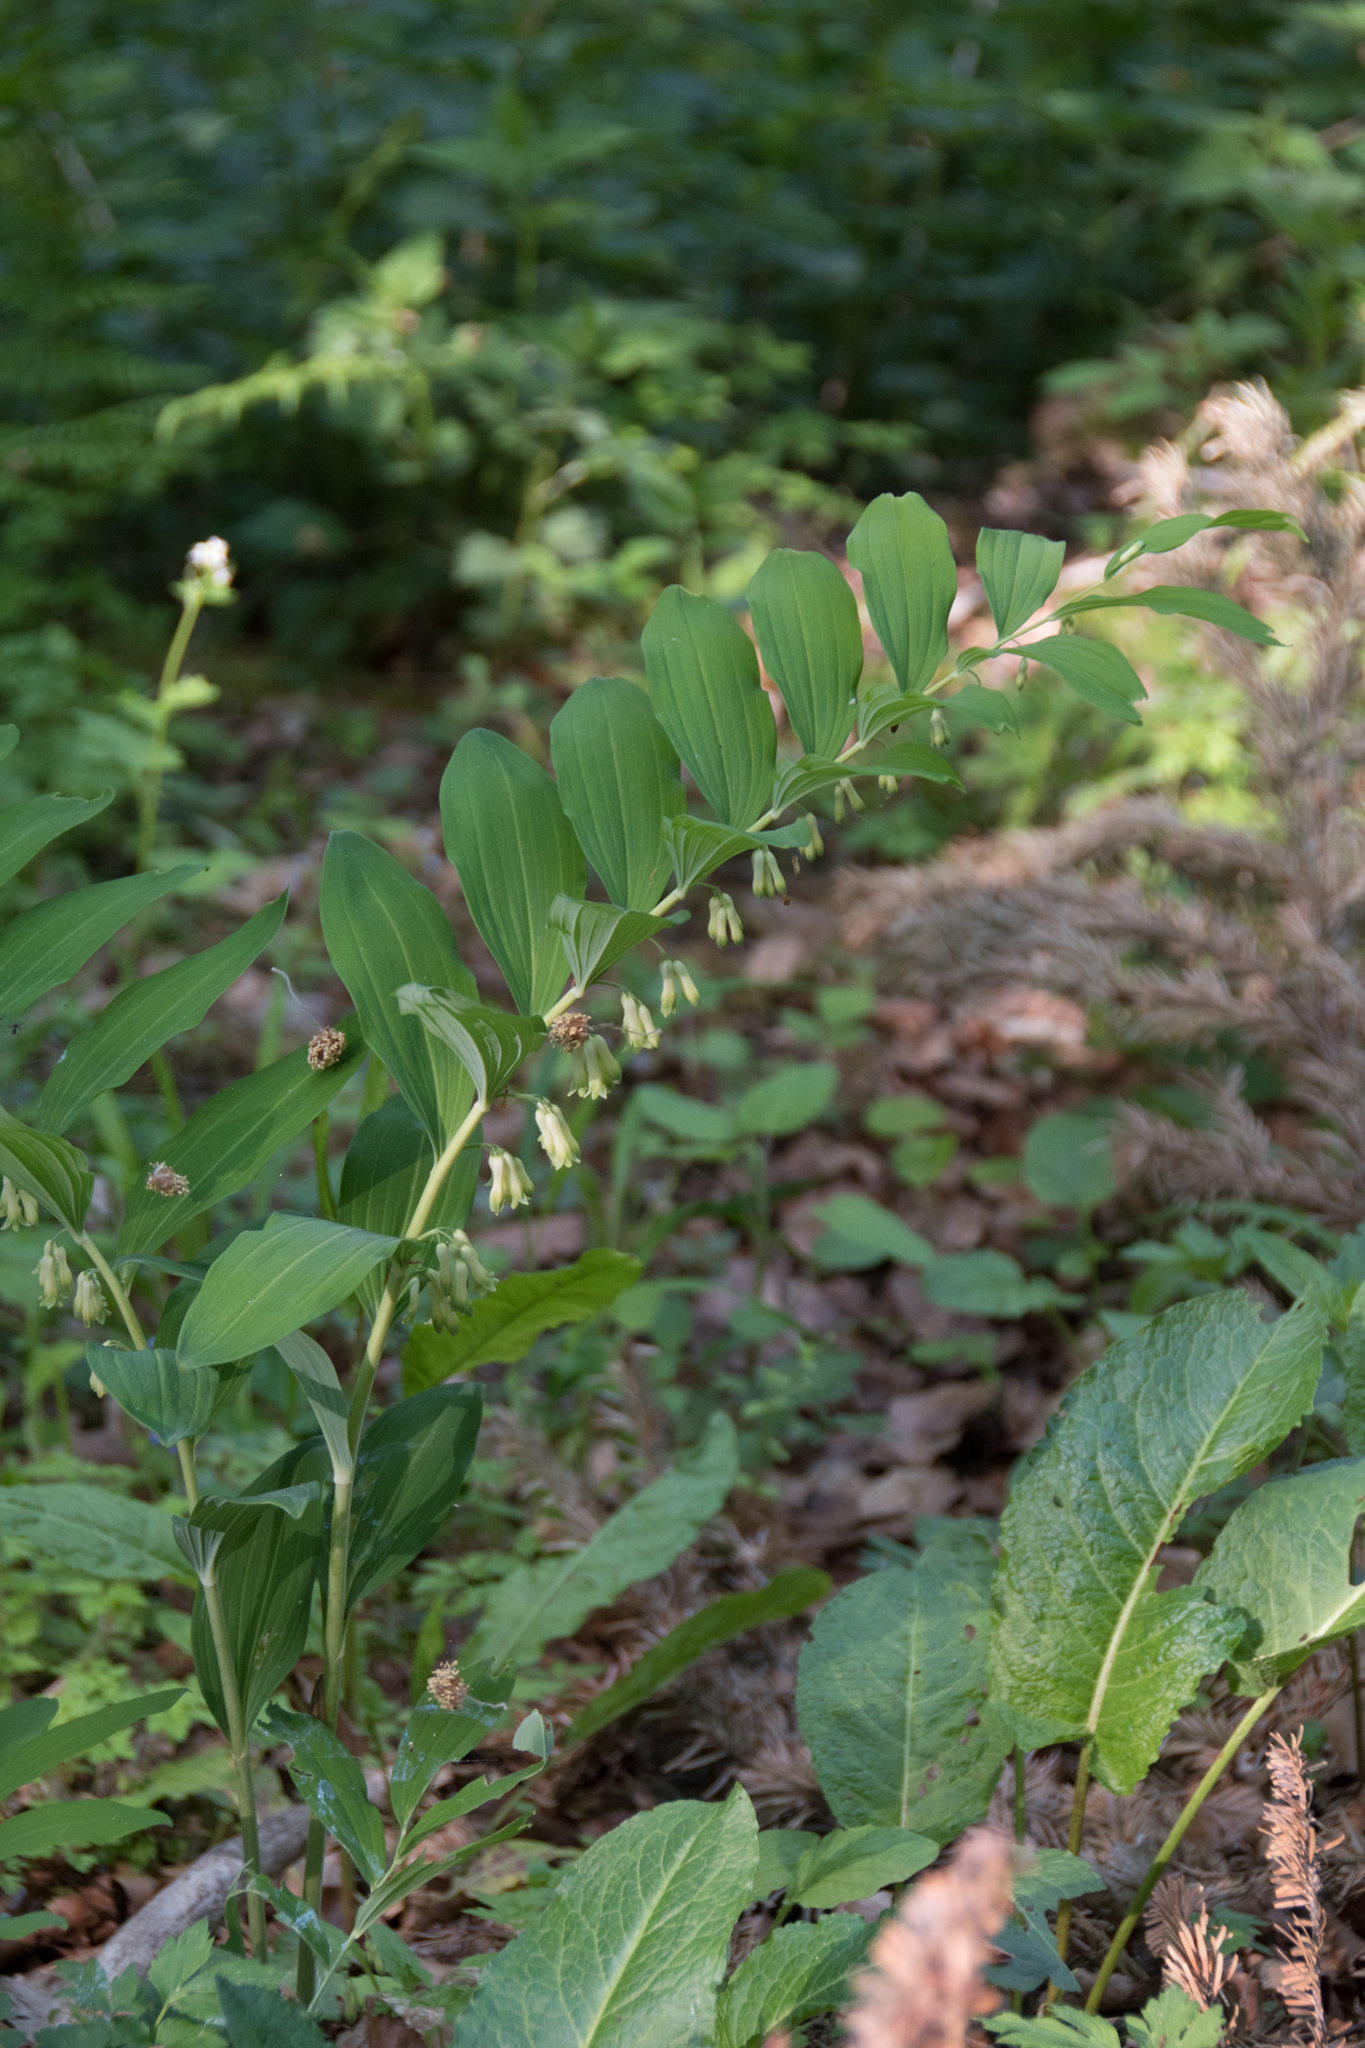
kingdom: Plantae
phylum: Tracheophyta
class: Liliopsida
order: Asparagales
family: Asparagaceae
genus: Polygonatum
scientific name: Polygonatum multiflorum
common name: Solomon's-seal
